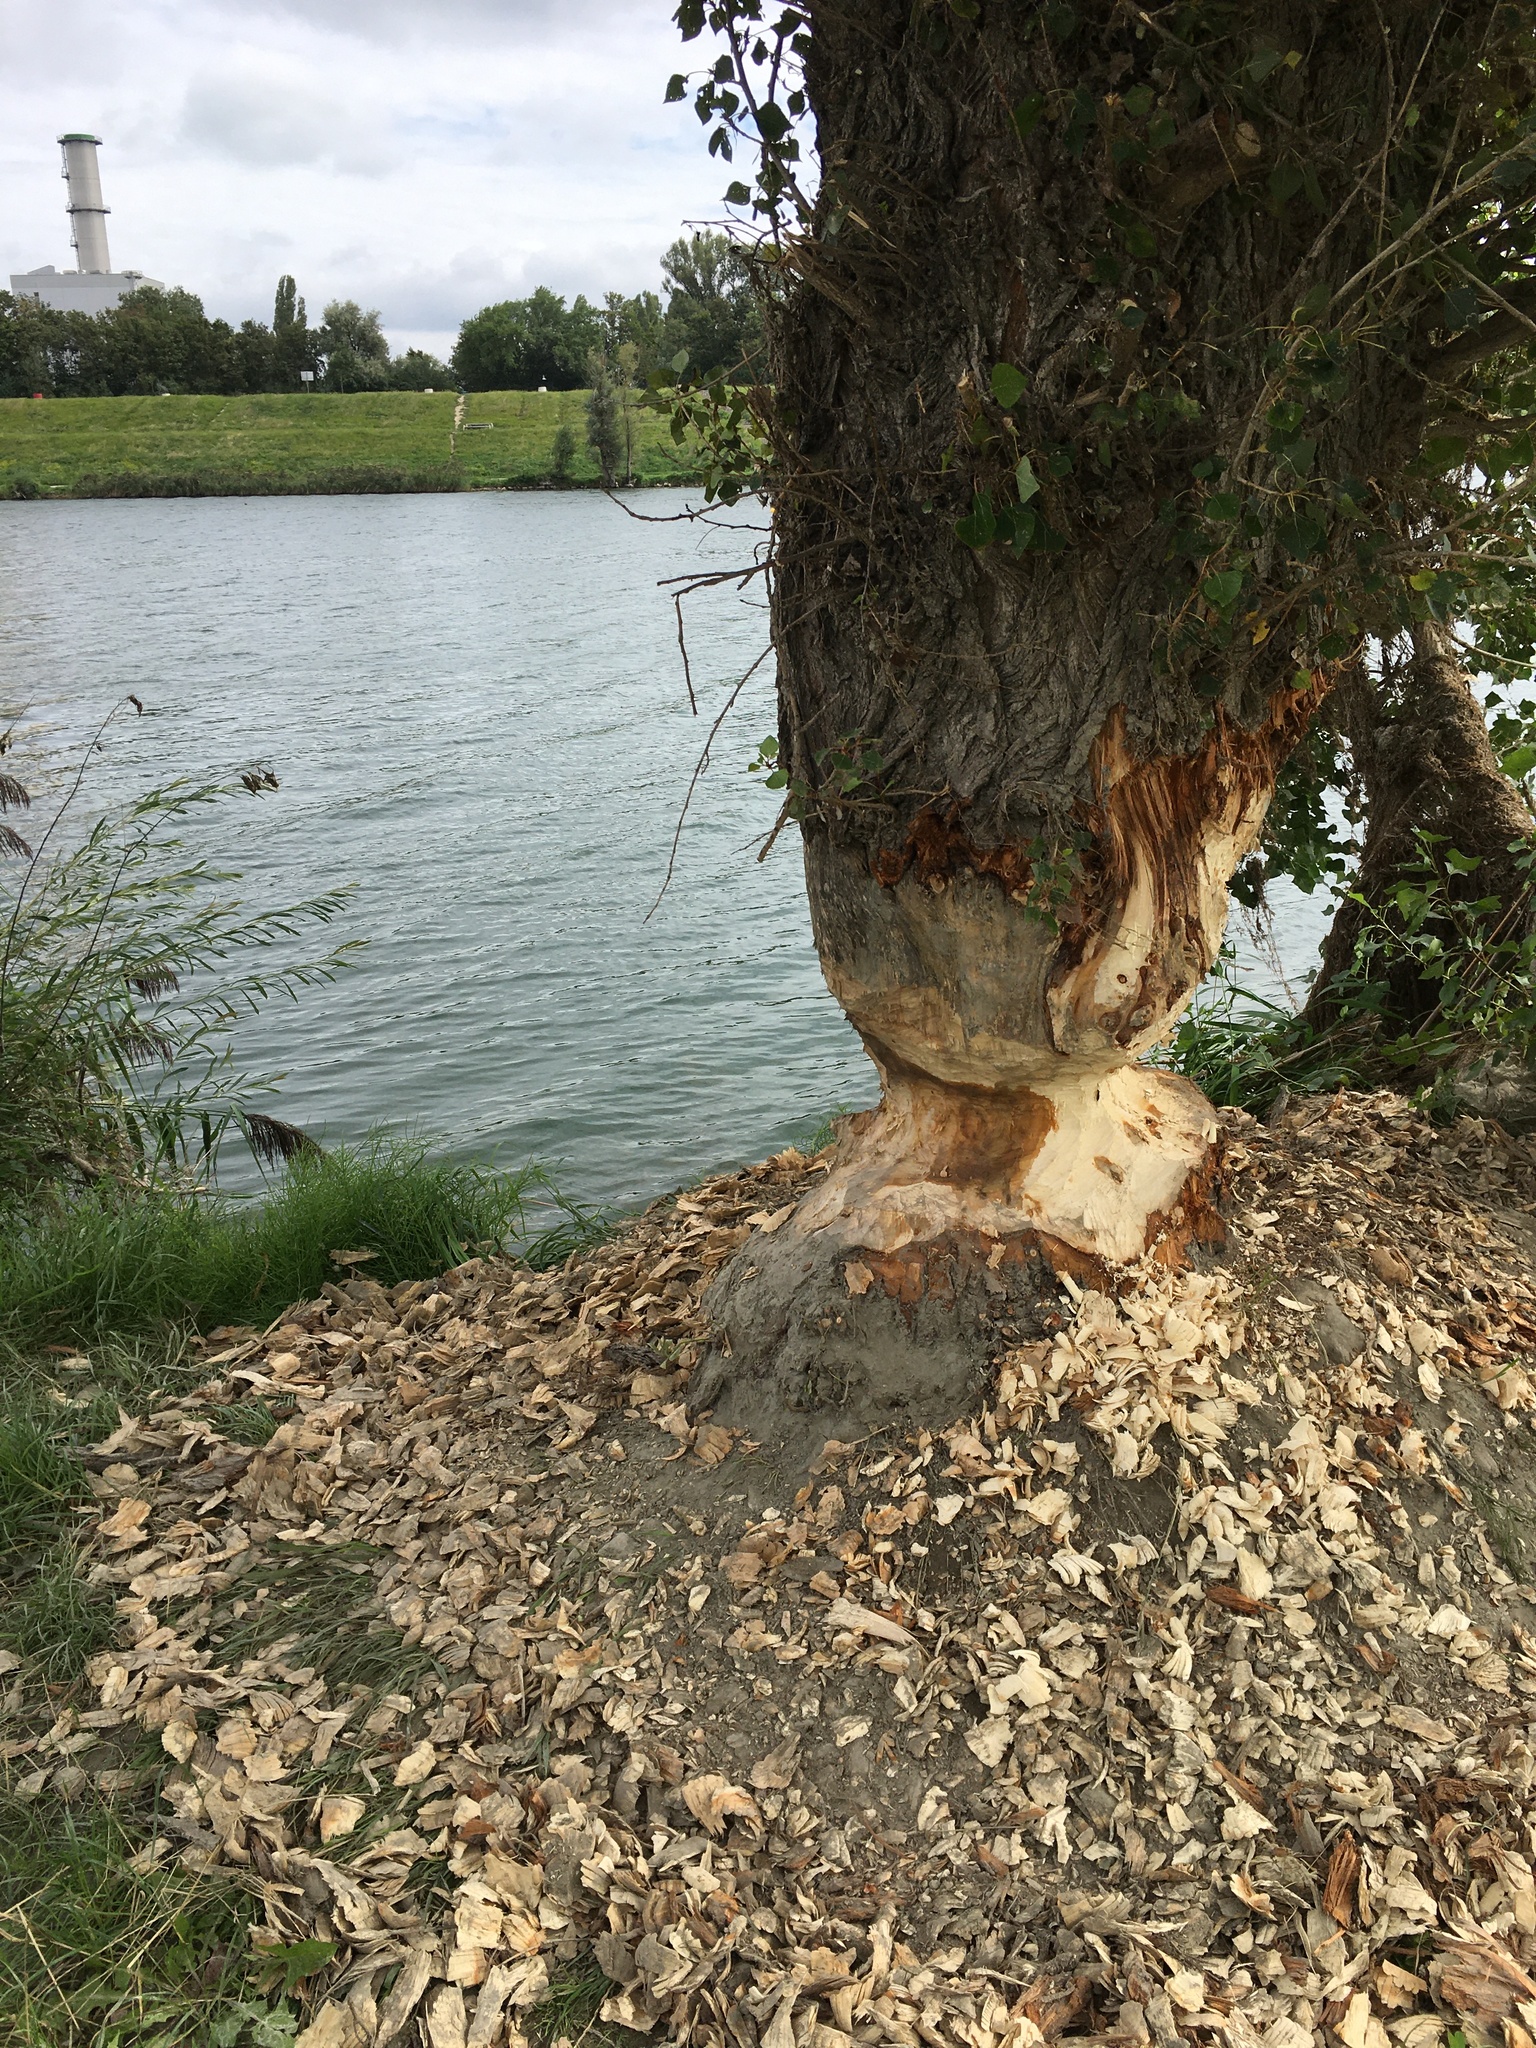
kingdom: Animalia
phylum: Chordata
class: Mammalia
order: Rodentia
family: Castoridae
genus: Castor
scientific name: Castor fiber
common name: Eurasian beaver
